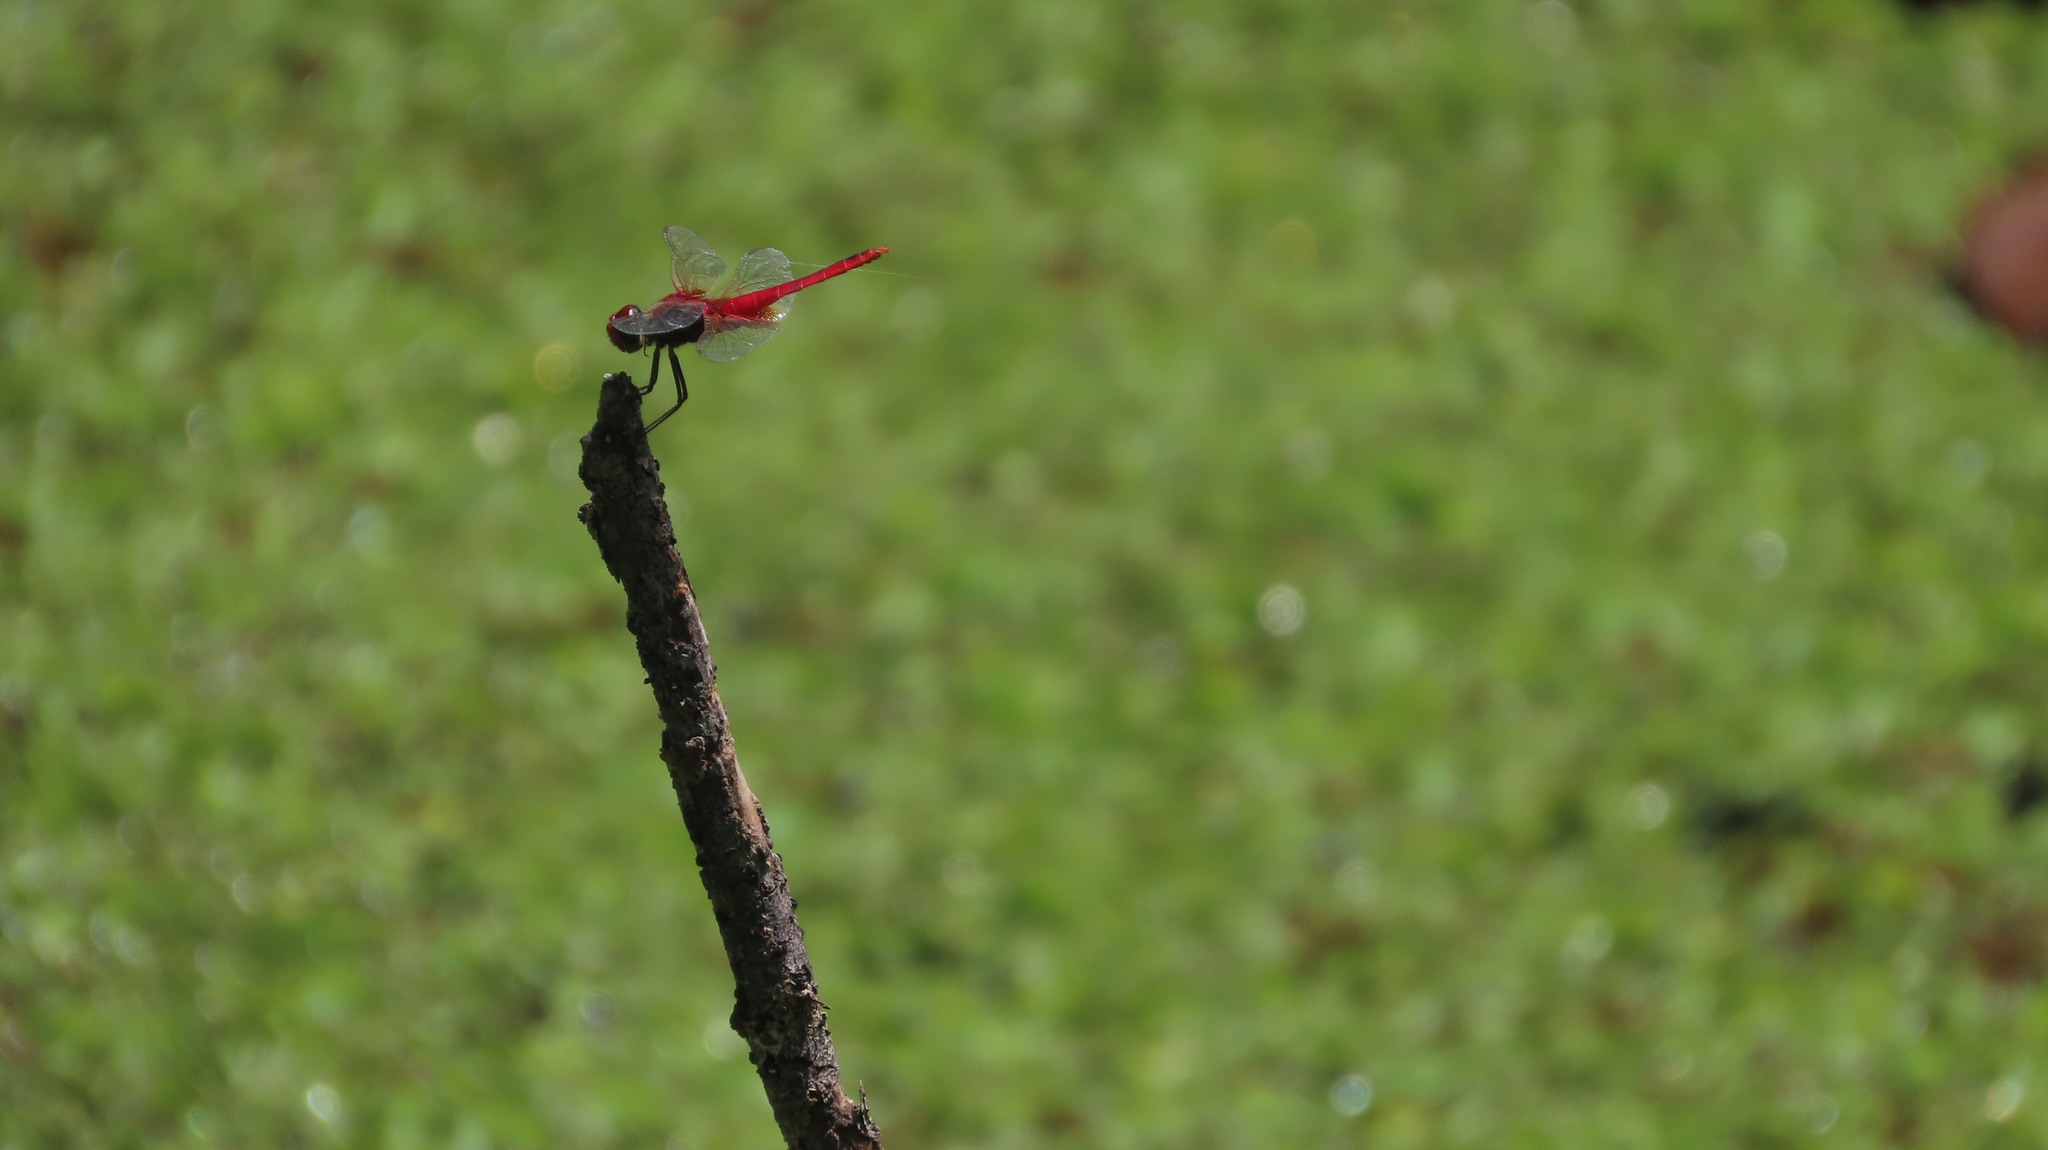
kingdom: Animalia
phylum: Arthropoda
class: Insecta
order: Odonata
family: Libellulidae
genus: Urothemis
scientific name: Urothemis signata
